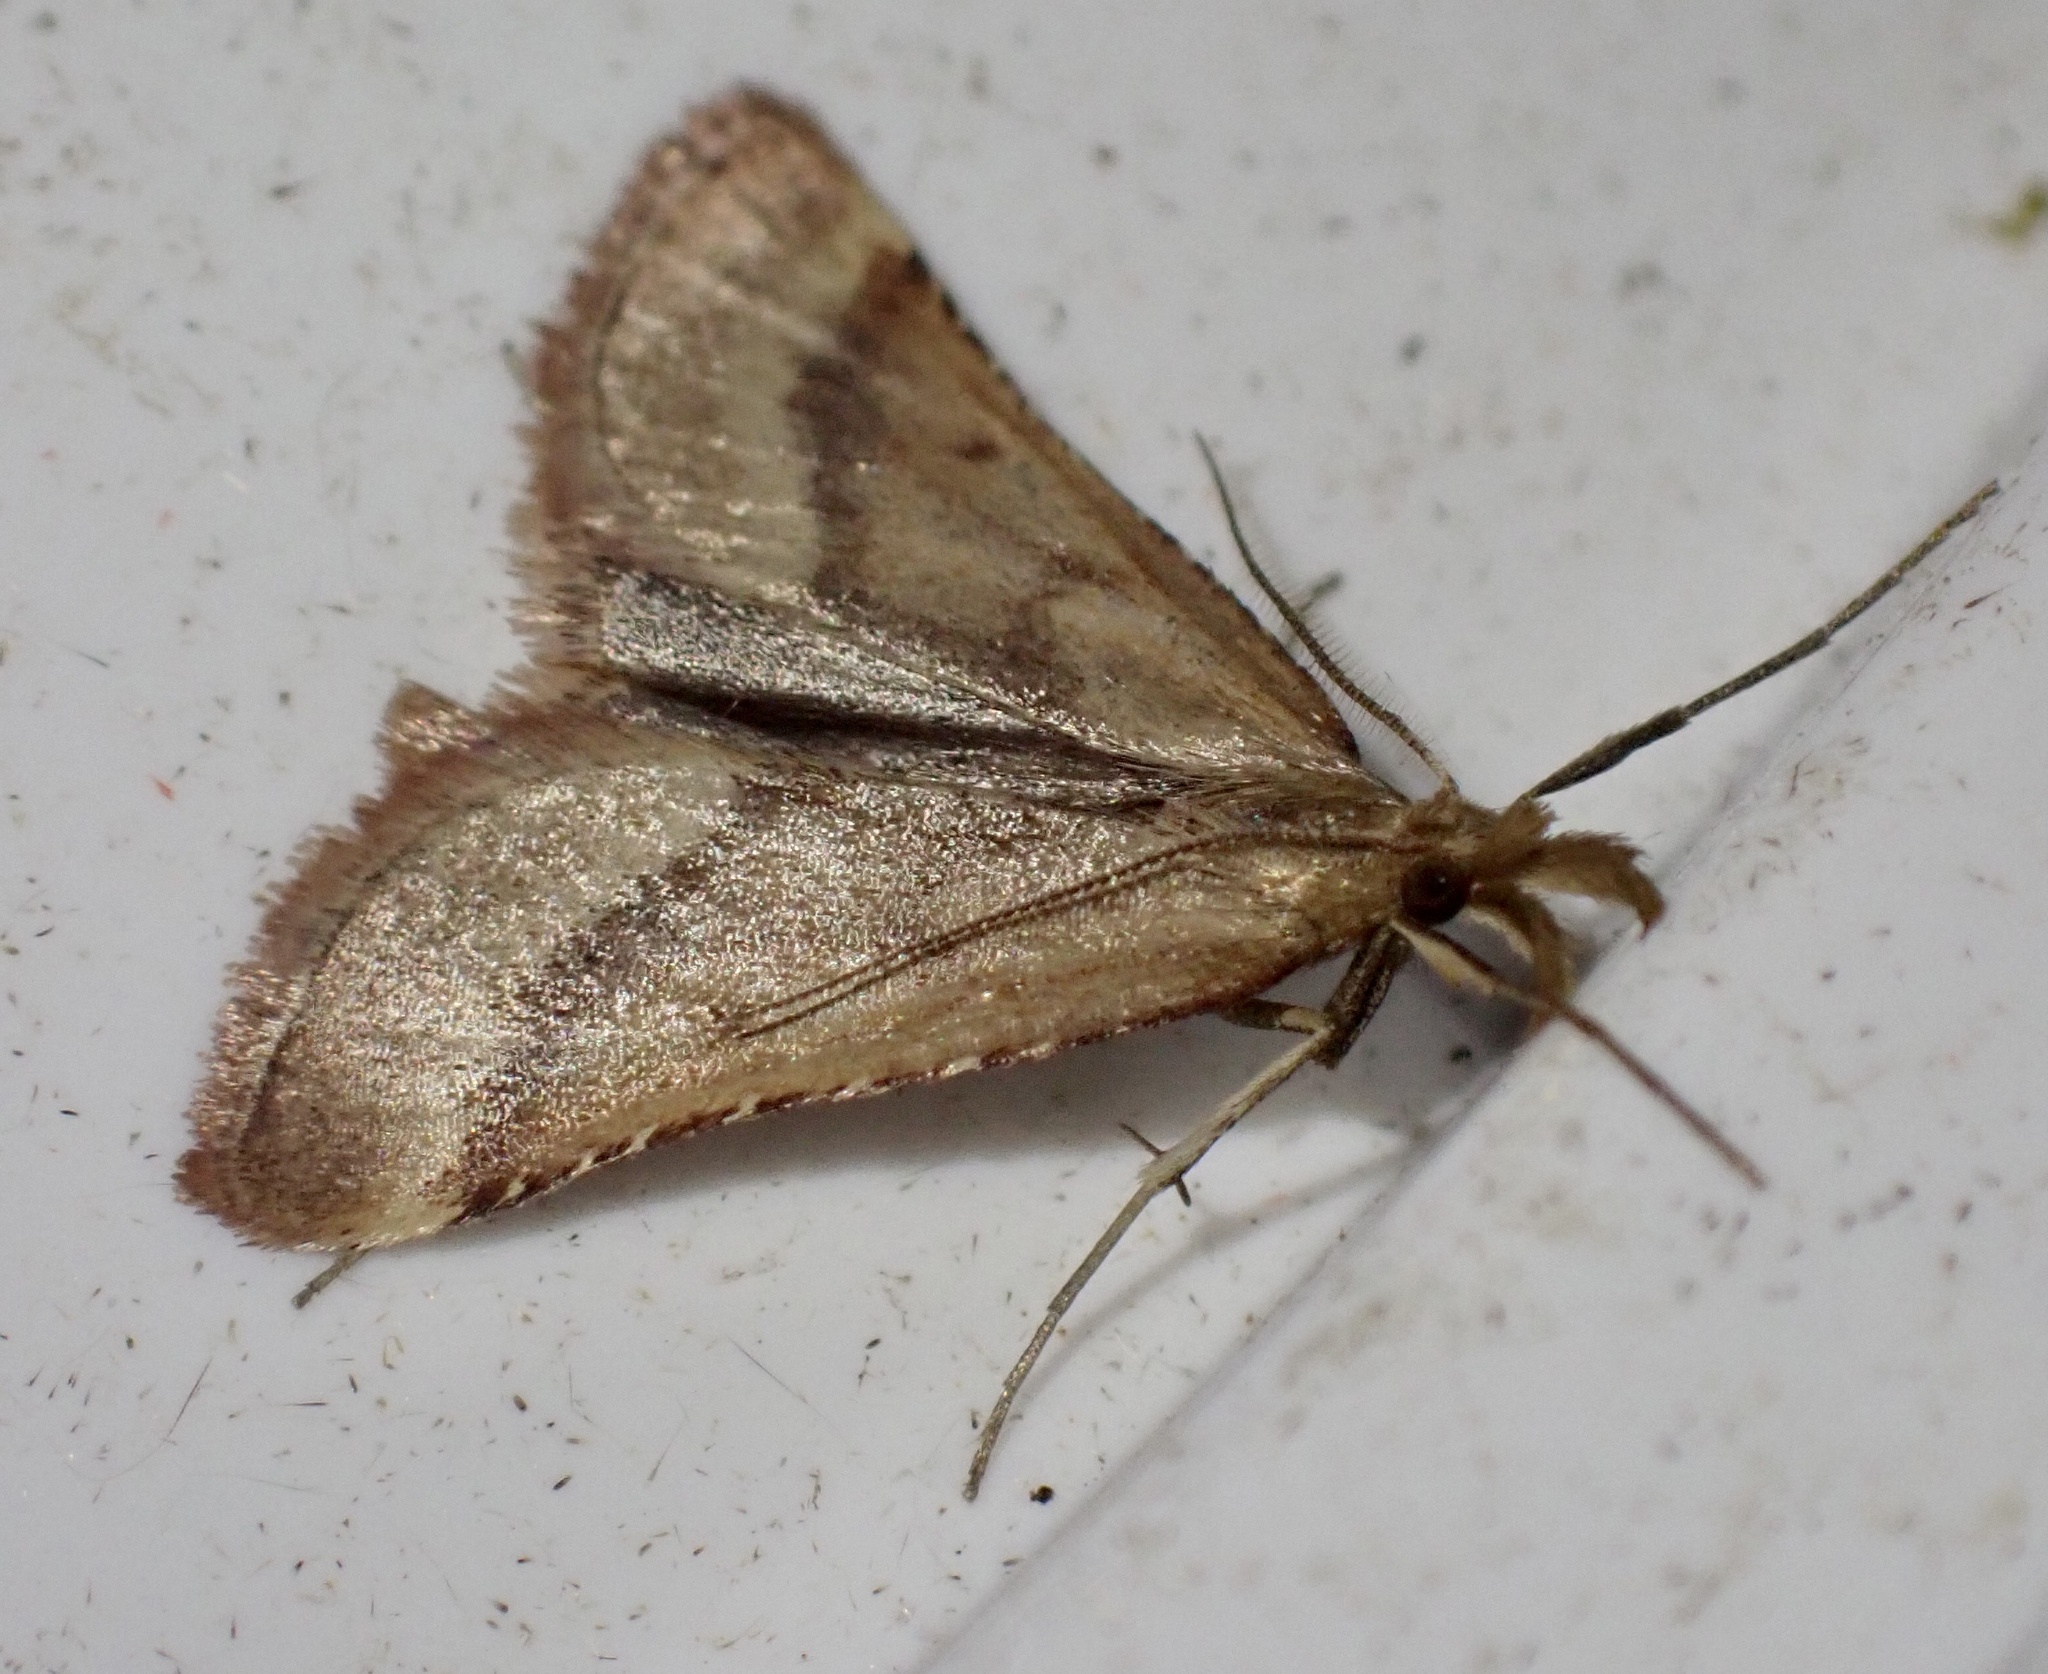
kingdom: Animalia
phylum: Arthropoda
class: Insecta
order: Lepidoptera
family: Pyralidae
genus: Synaphe
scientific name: Synaphe punctalis
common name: Long-legged tabby
